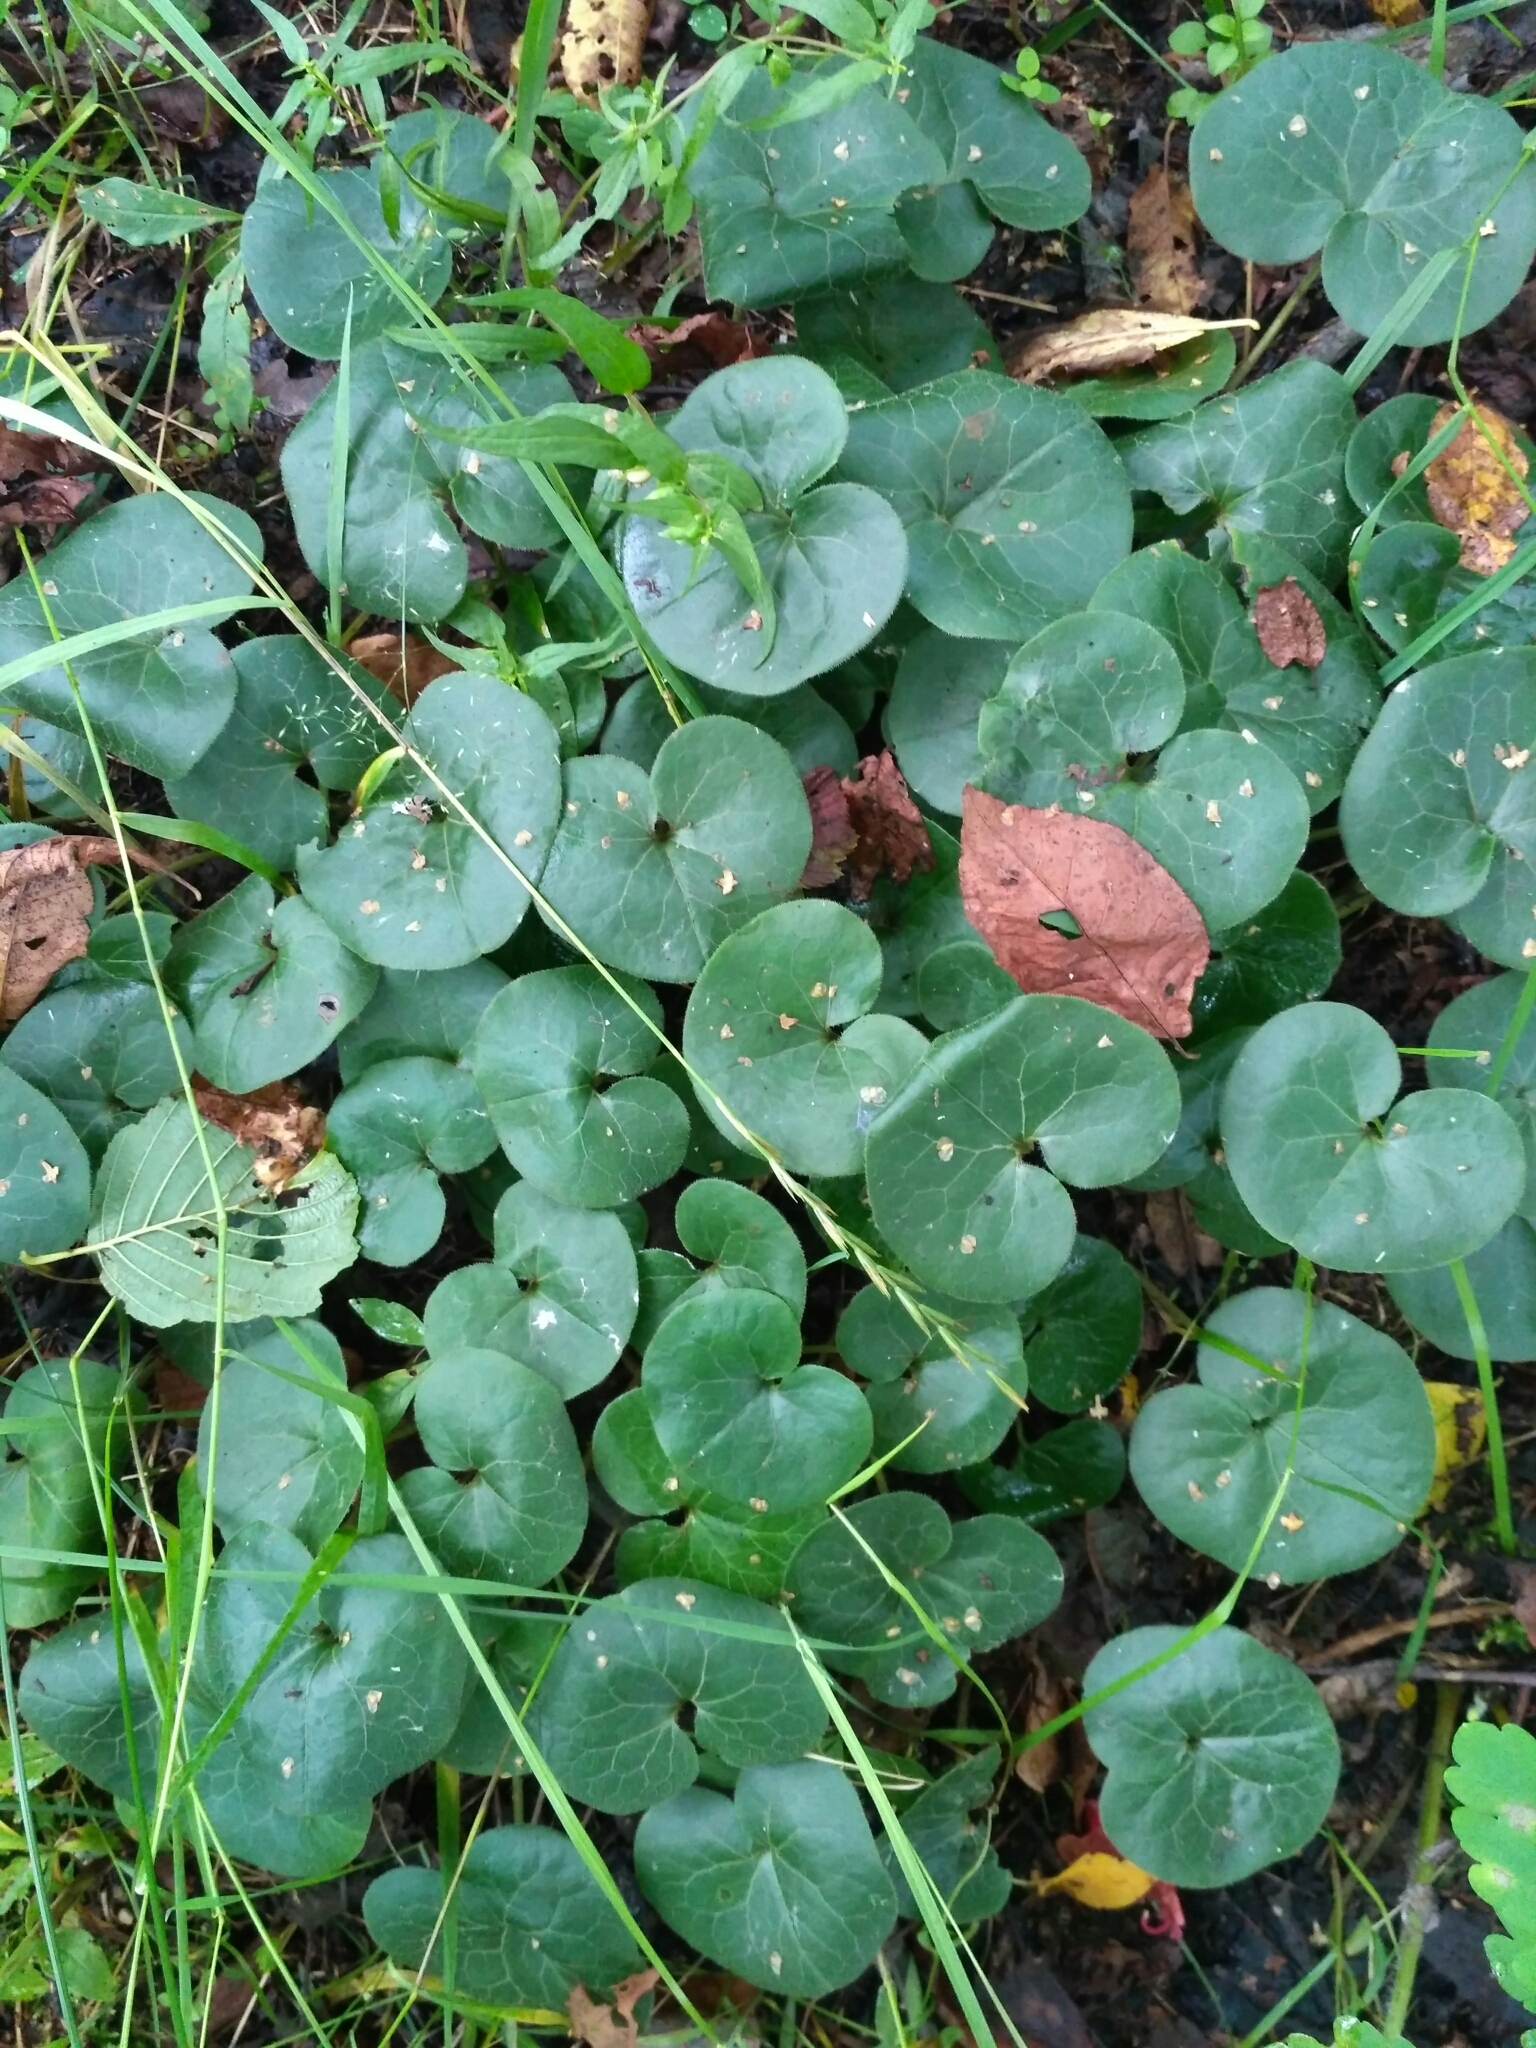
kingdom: Plantae
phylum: Tracheophyta
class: Magnoliopsida
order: Piperales
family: Aristolochiaceae
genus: Asarum
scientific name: Asarum europaeum
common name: Asarabacca
